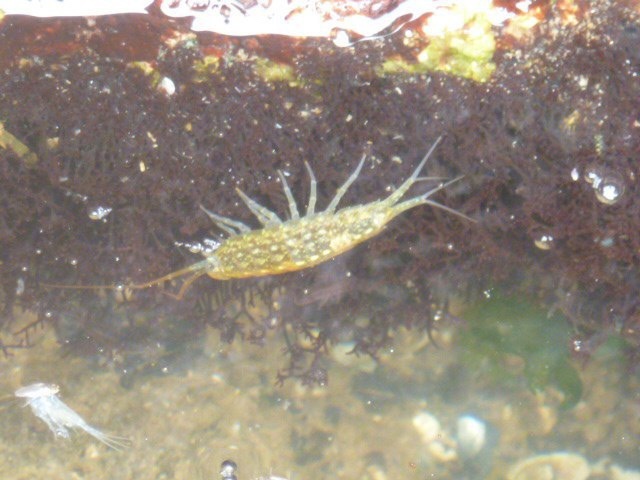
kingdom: Animalia
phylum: Arthropoda
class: Malacostraca
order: Isopoda
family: Ligiidae
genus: Ligia
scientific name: Ligia exotica
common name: Wharf roach
